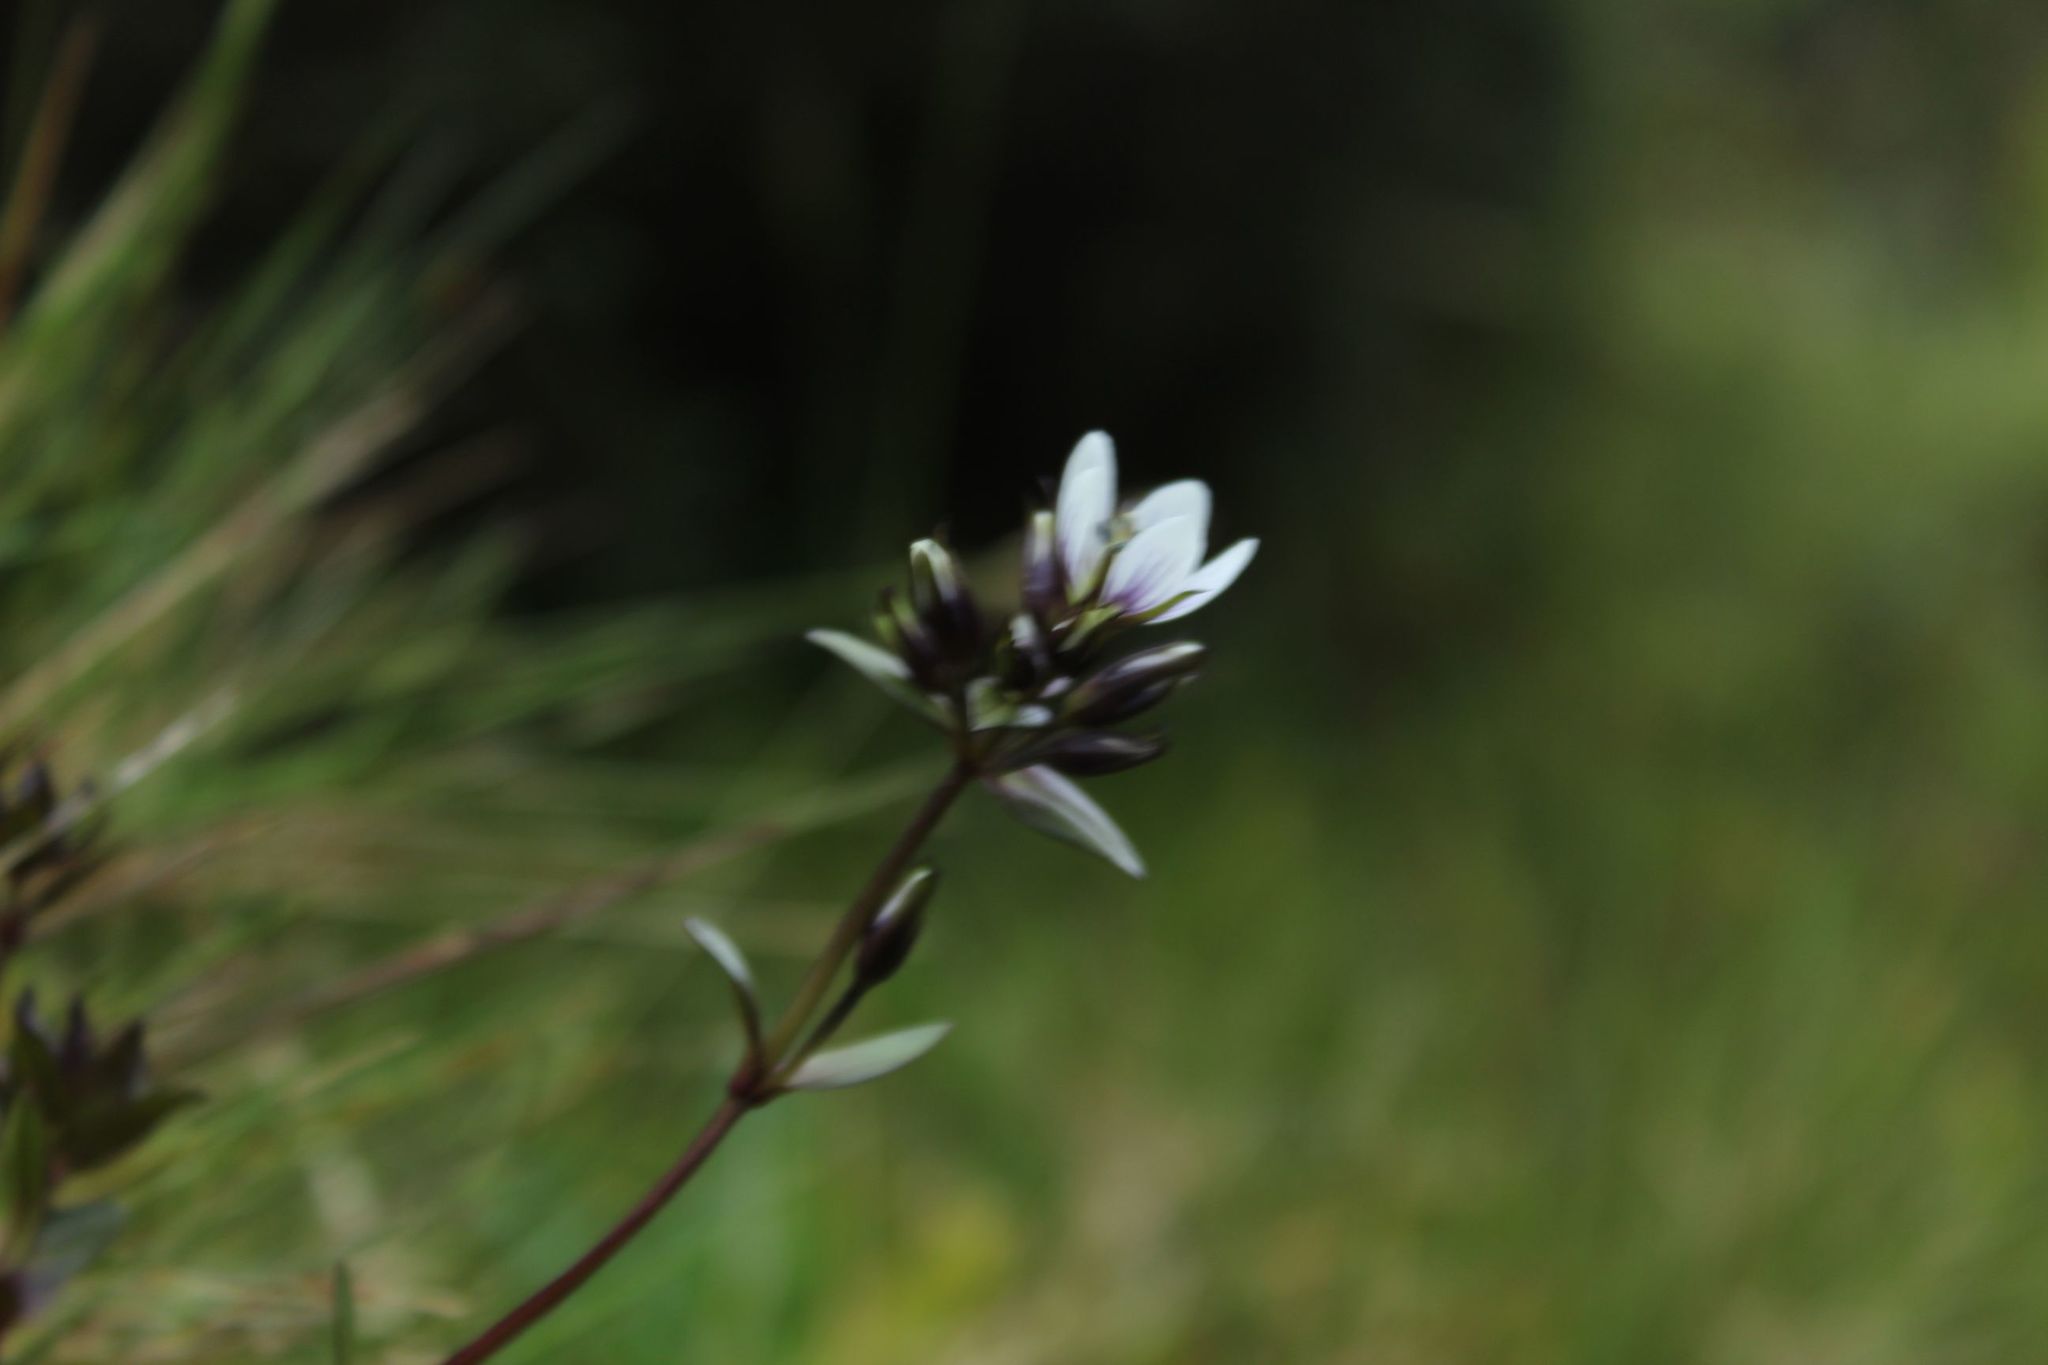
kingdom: Plantae
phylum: Tracheophyta
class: Magnoliopsida
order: Gentianales
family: Gentianaceae
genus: Gentianella
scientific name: Gentianella corymbosa
